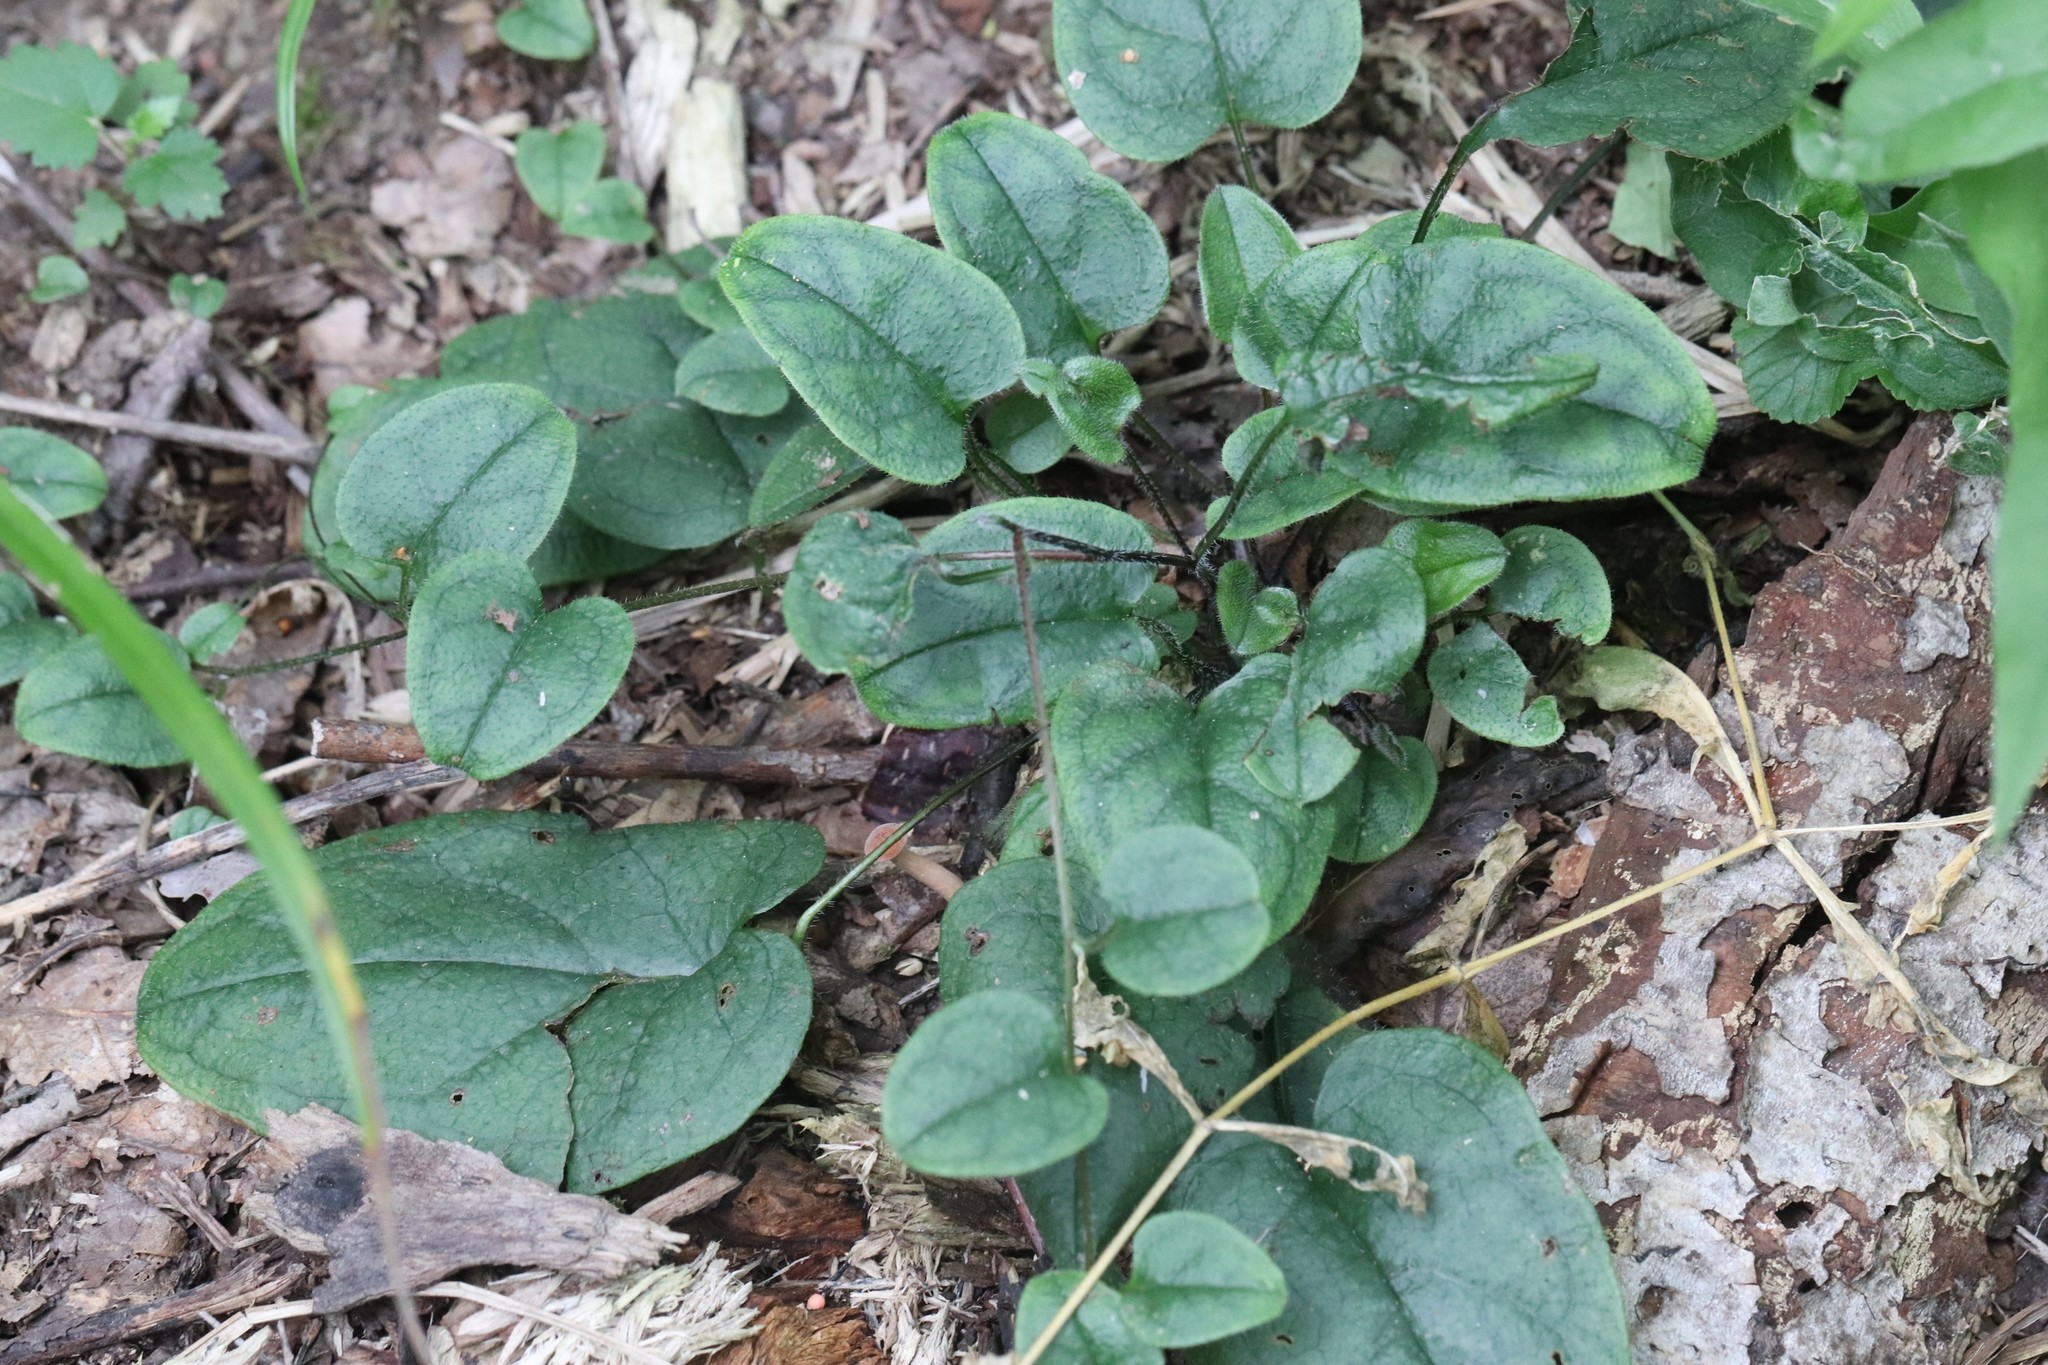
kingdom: Plantae
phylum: Tracheophyta
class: Magnoliopsida
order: Boraginales
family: Boraginaceae
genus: Trigonotis
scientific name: Trigonotis radicans
